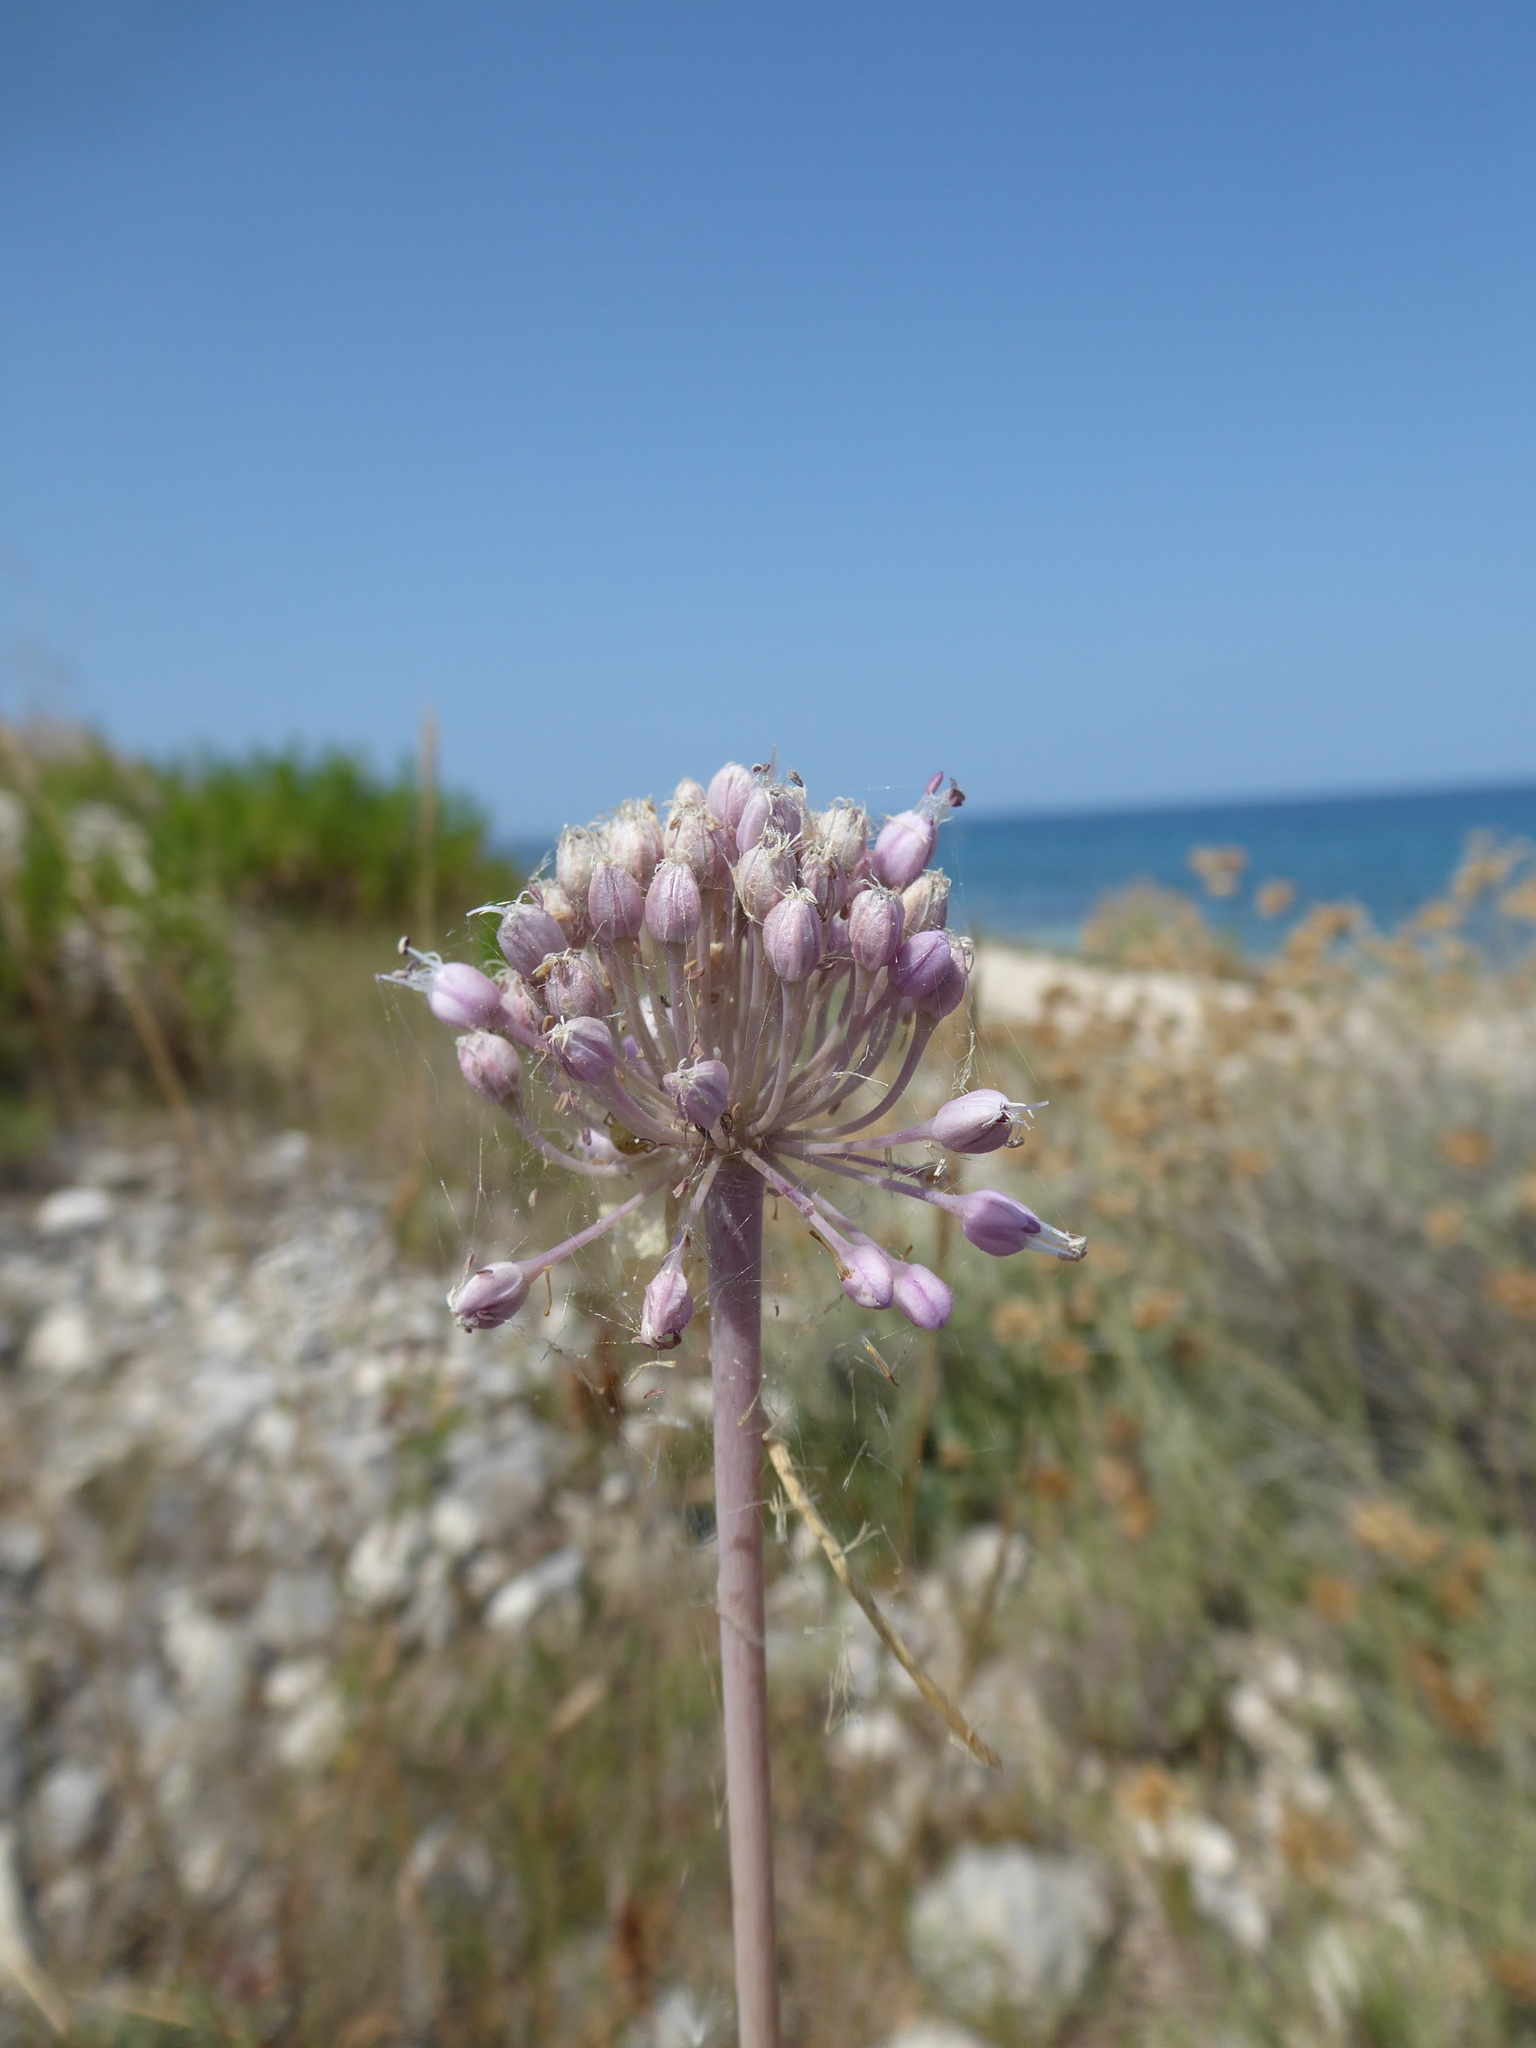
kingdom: Plantae
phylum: Tracheophyta
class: Liliopsida
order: Asparagales
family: Amaryllidaceae
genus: Allium
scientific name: Allium commutatum
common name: Sea garlic
